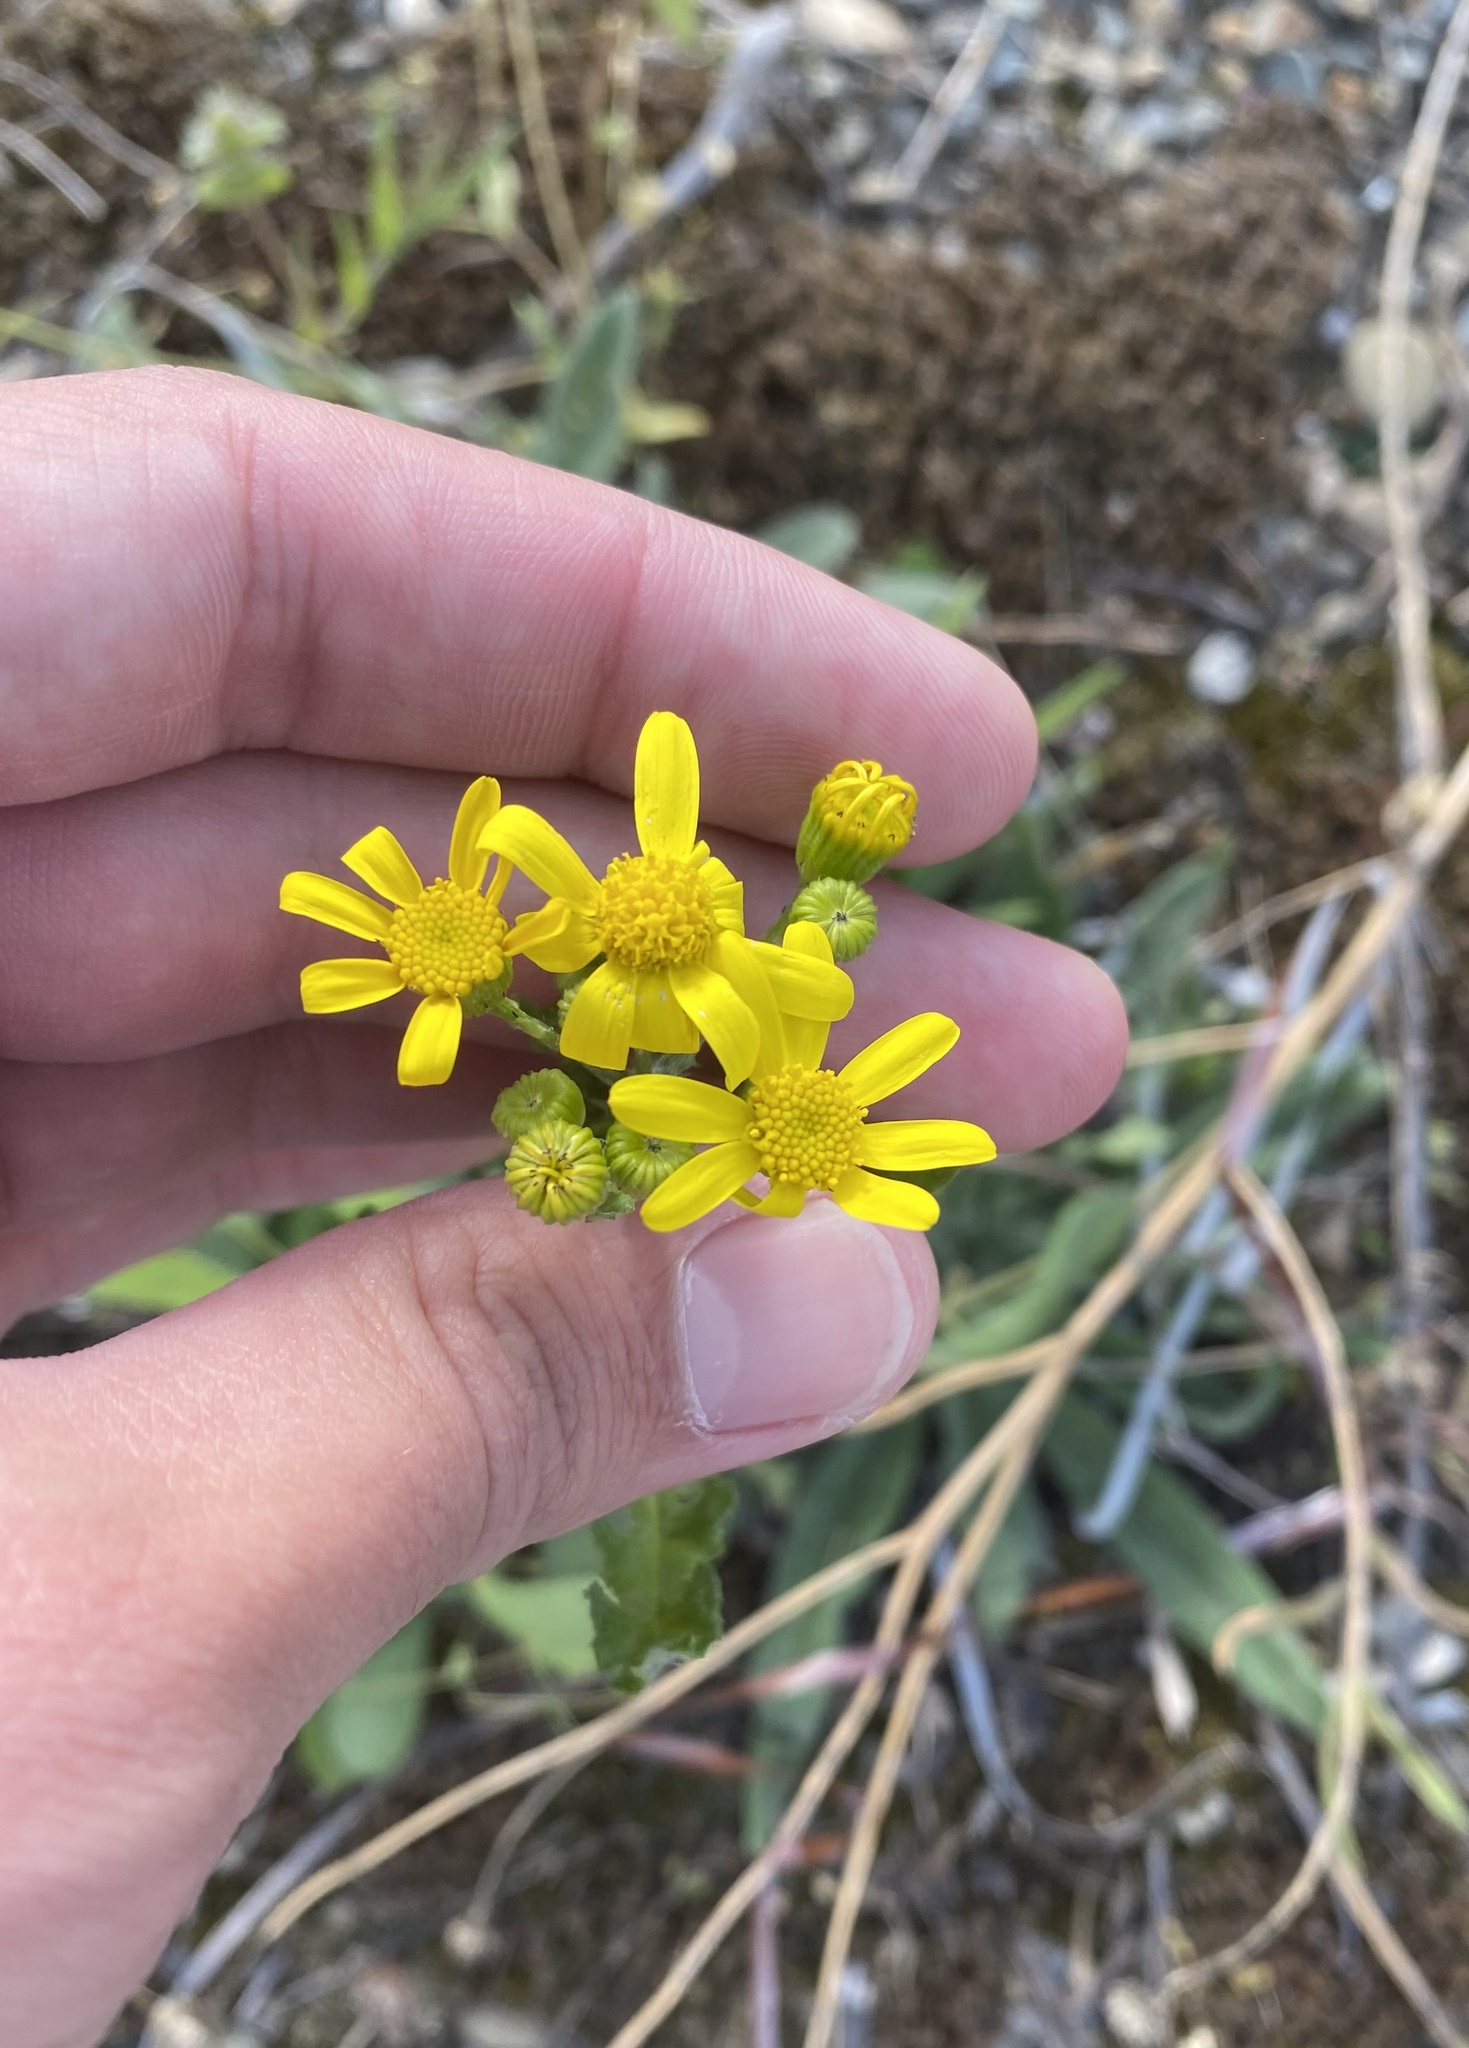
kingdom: Plantae
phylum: Tracheophyta
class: Magnoliopsida
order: Asterales
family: Asteraceae
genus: Senecio
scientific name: Senecio vernalis
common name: Eastern groundsel
